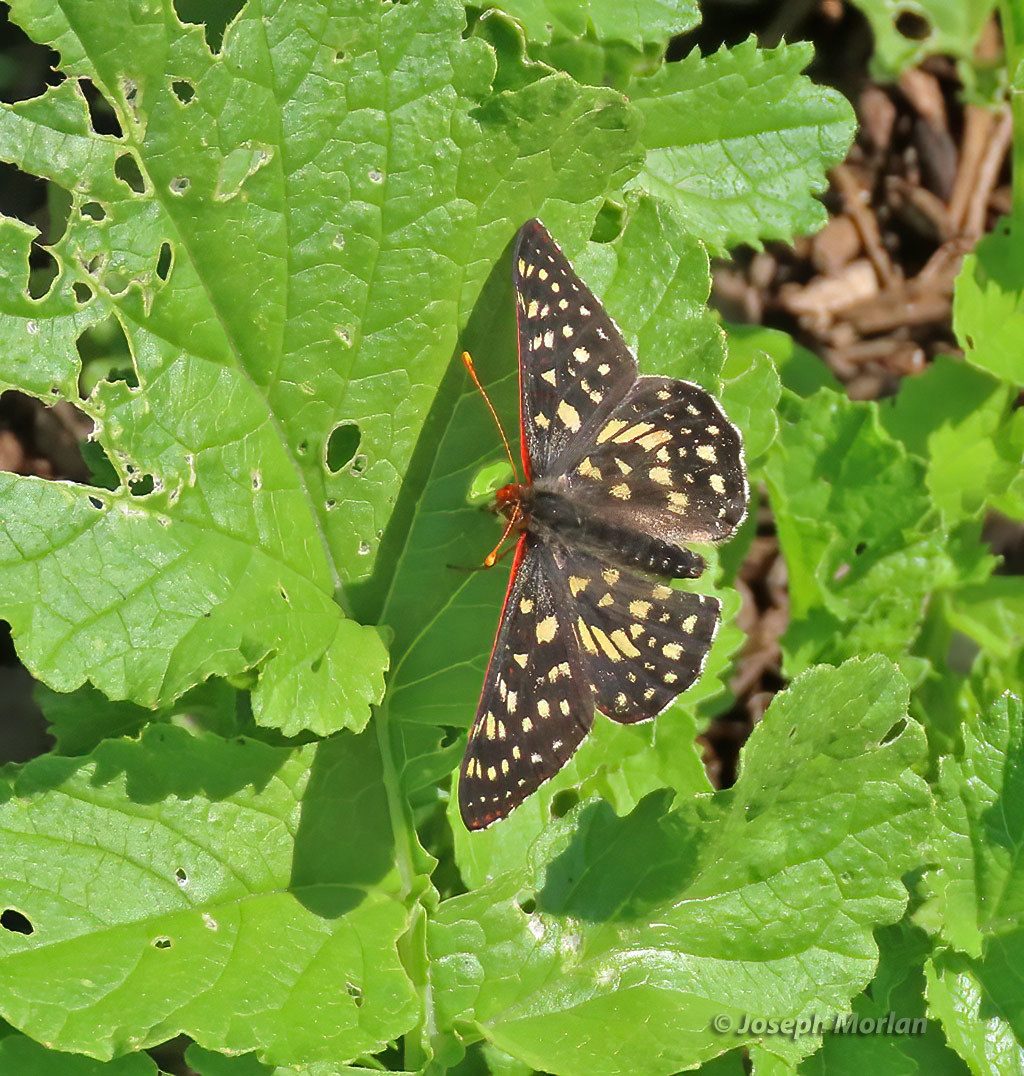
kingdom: Animalia
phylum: Arthropoda
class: Insecta
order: Lepidoptera
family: Nymphalidae
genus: Occidryas
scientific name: Occidryas chalcedona
